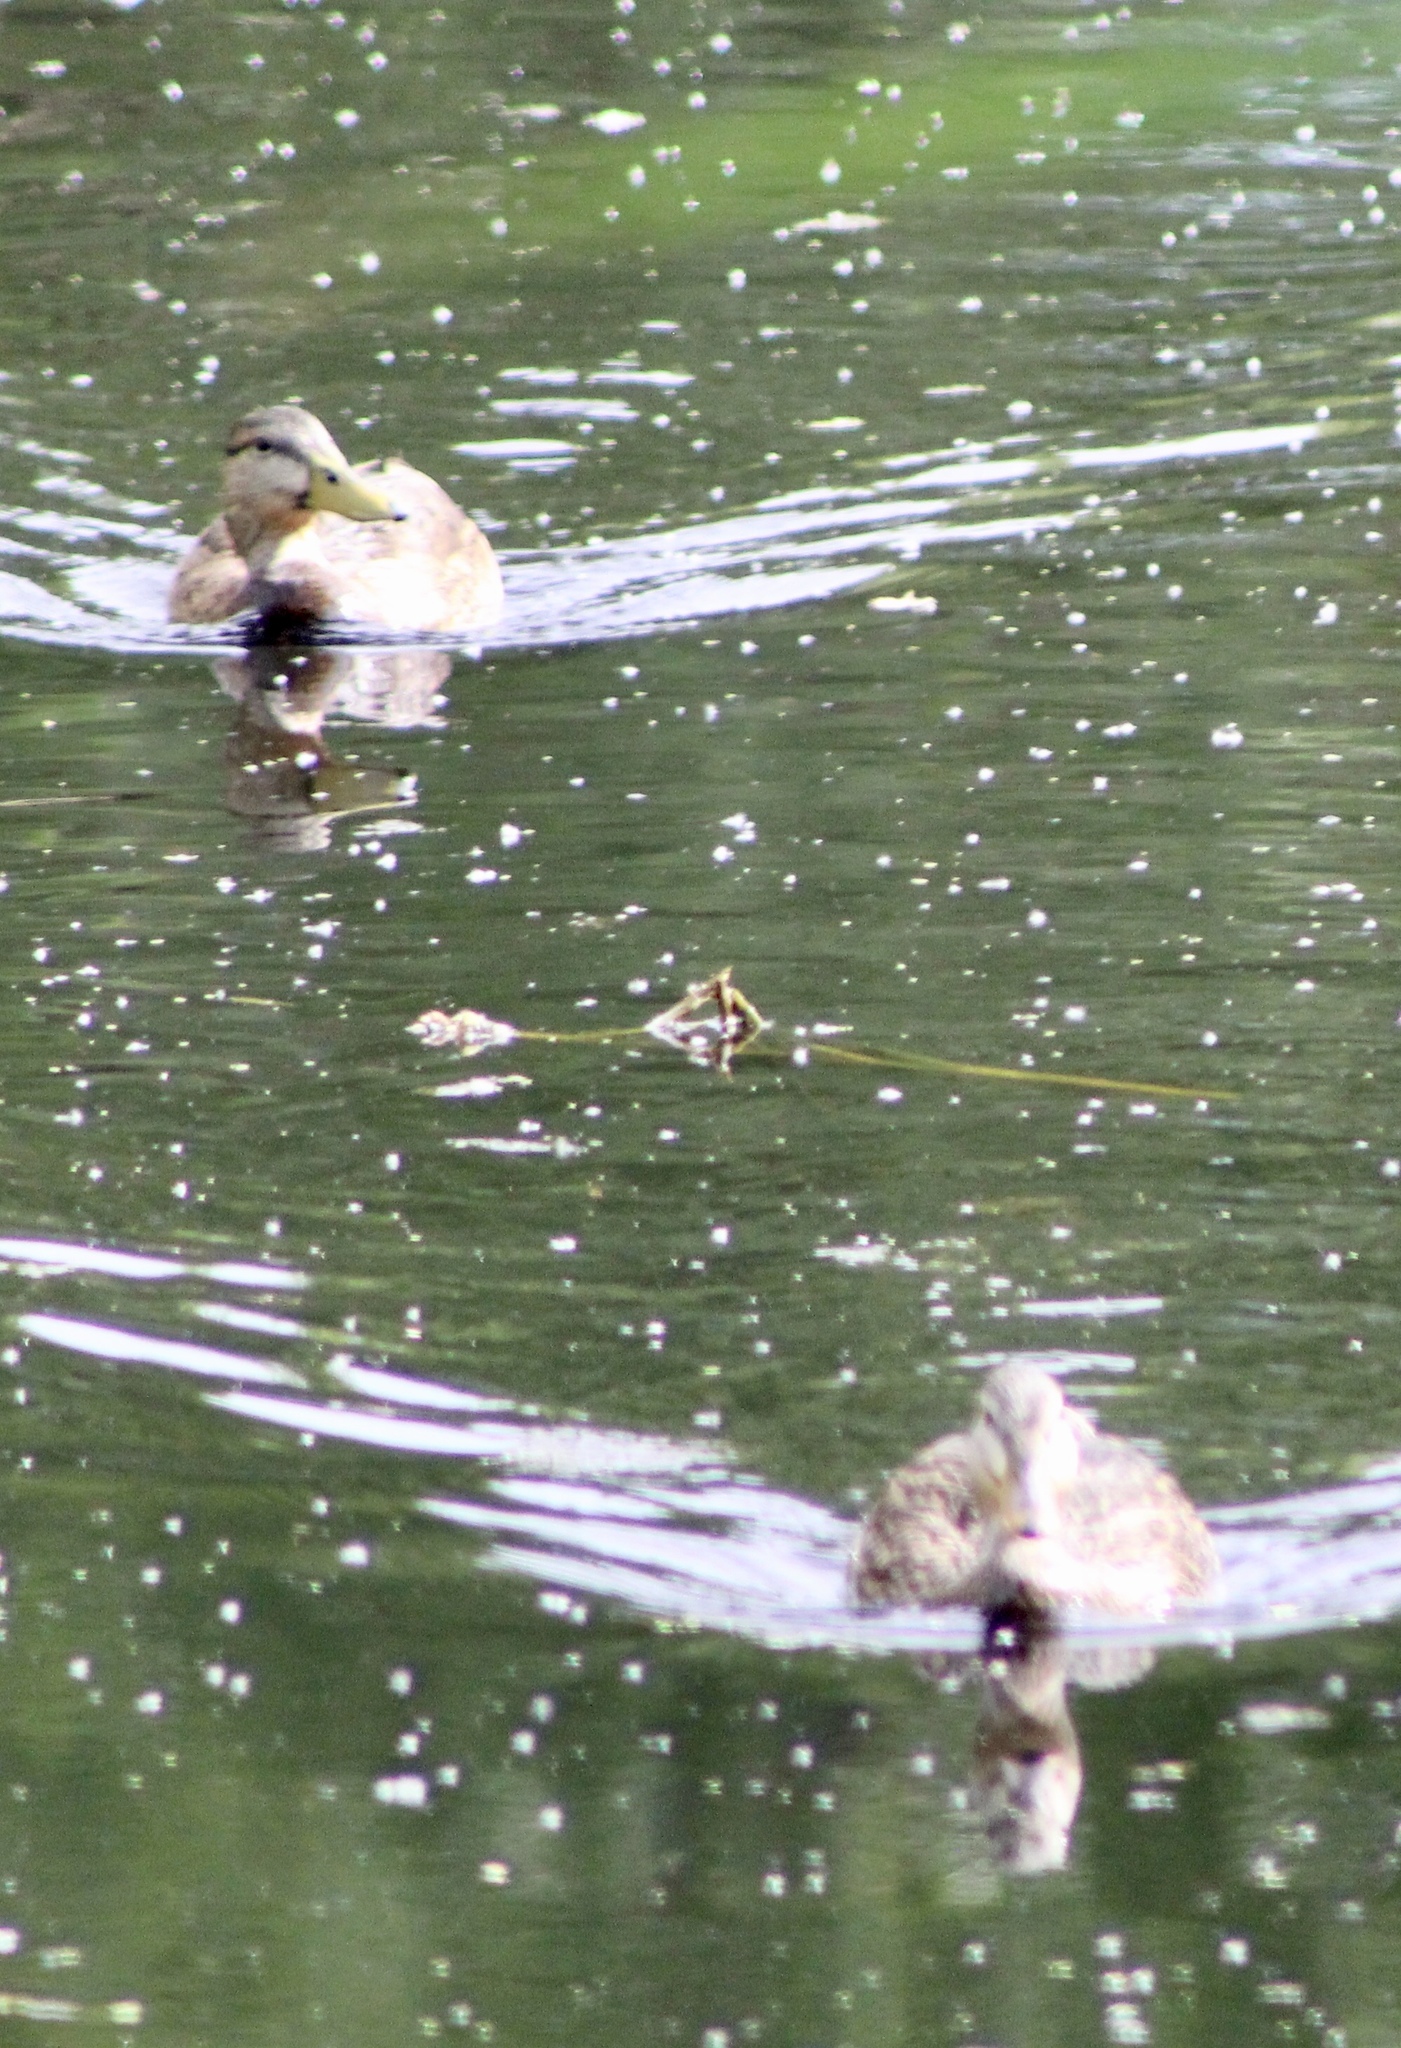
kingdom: Animalia
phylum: Chordata
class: Aves
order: Anseriformes
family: Anatidae
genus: Anas
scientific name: Anas
